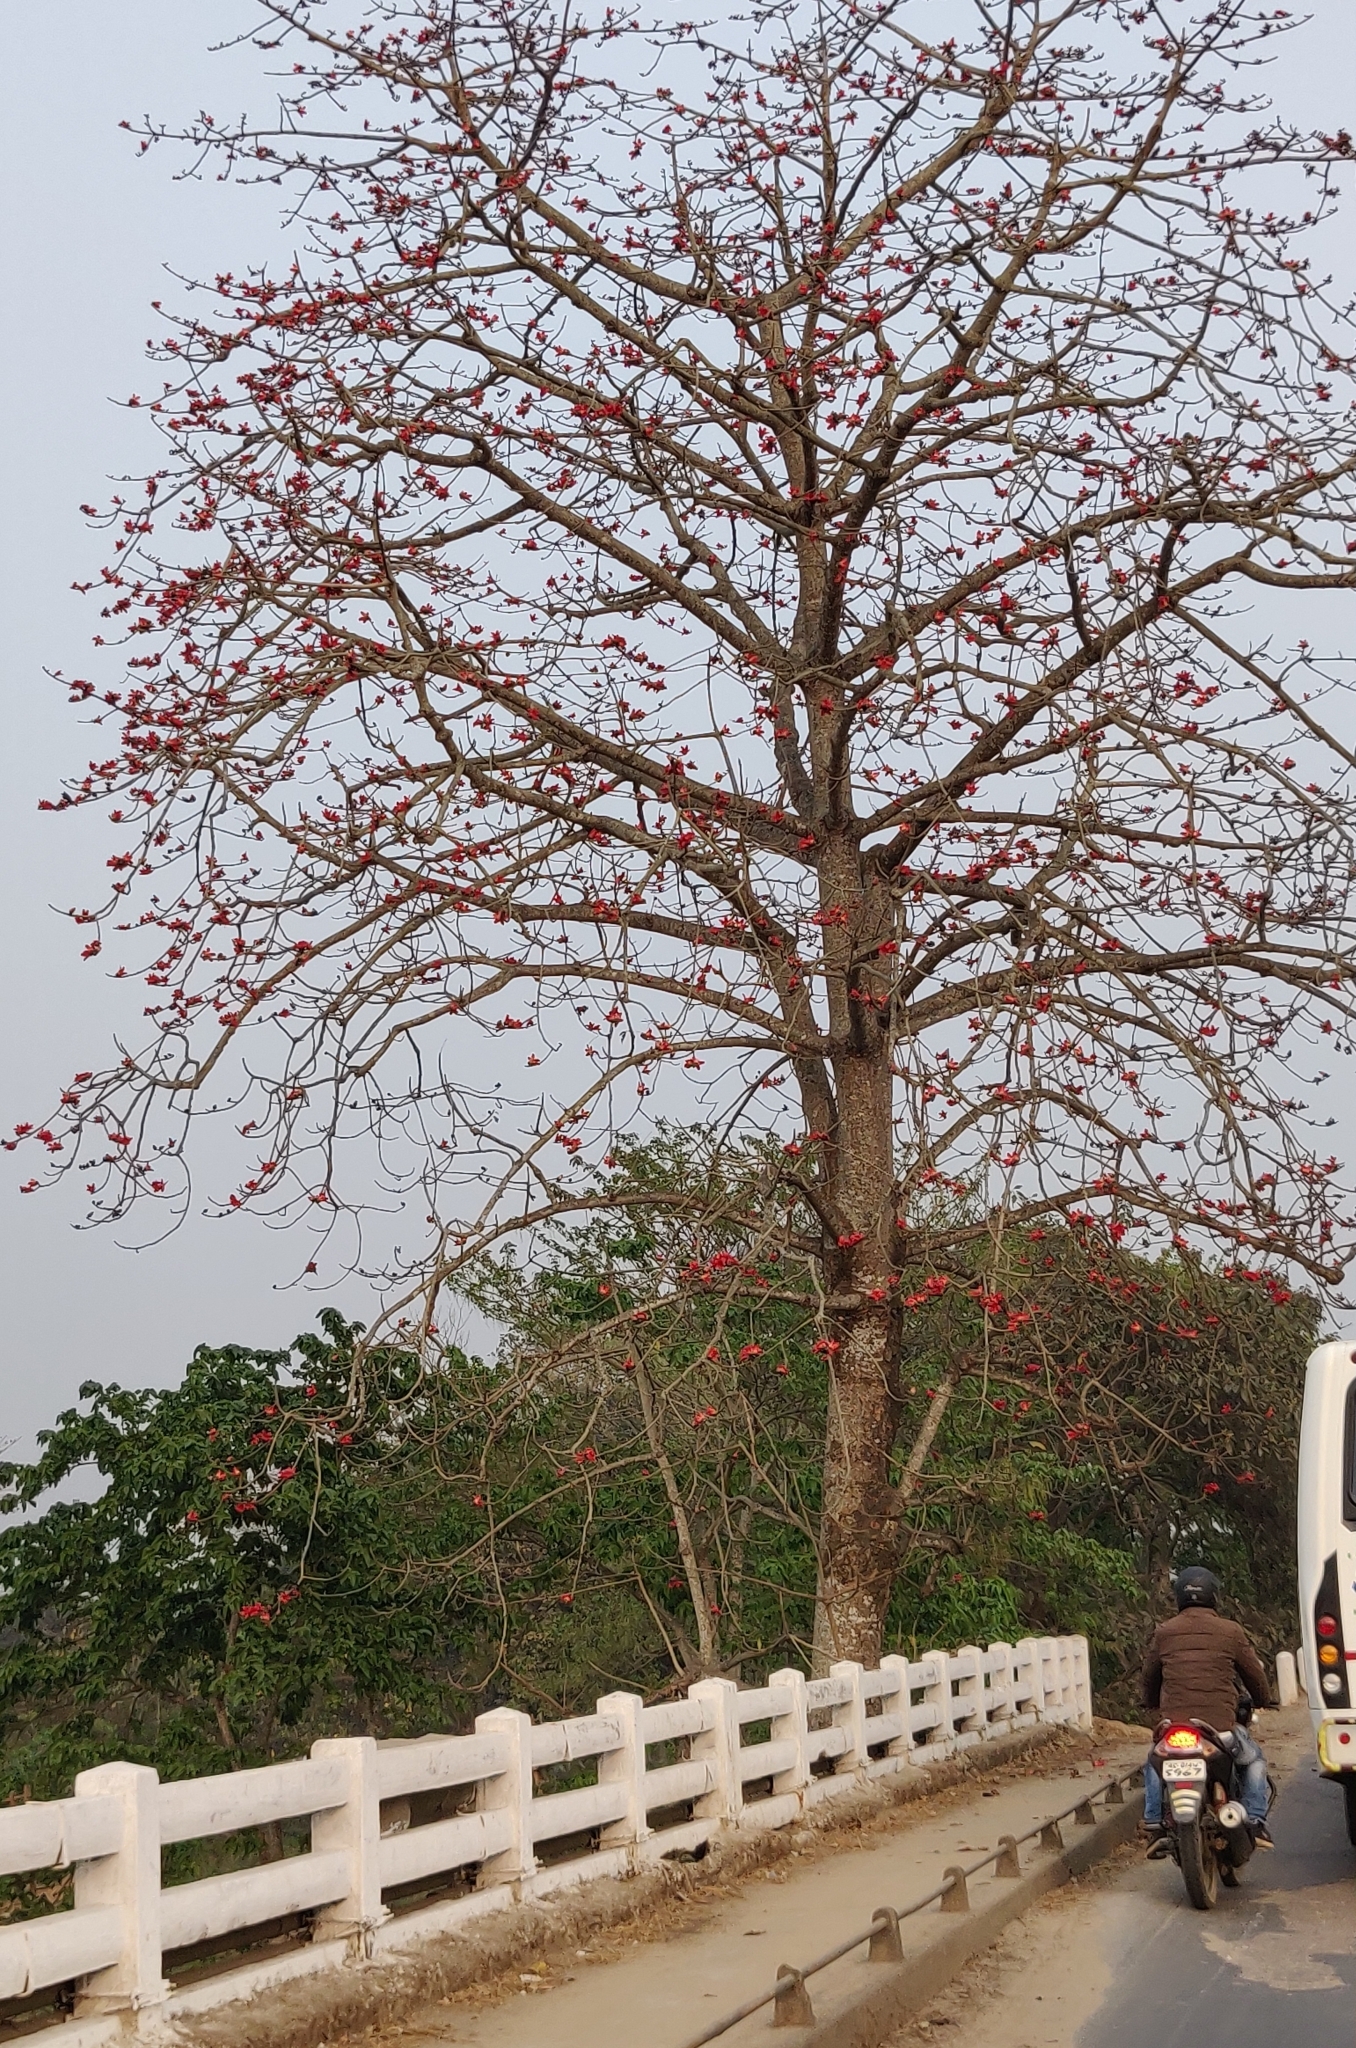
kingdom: Plantae
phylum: Tracheophyta
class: Magnoliopsida
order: Malvales
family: Malvaceae
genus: Bombax
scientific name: Bombax ceiba
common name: Northern-cottonwood
